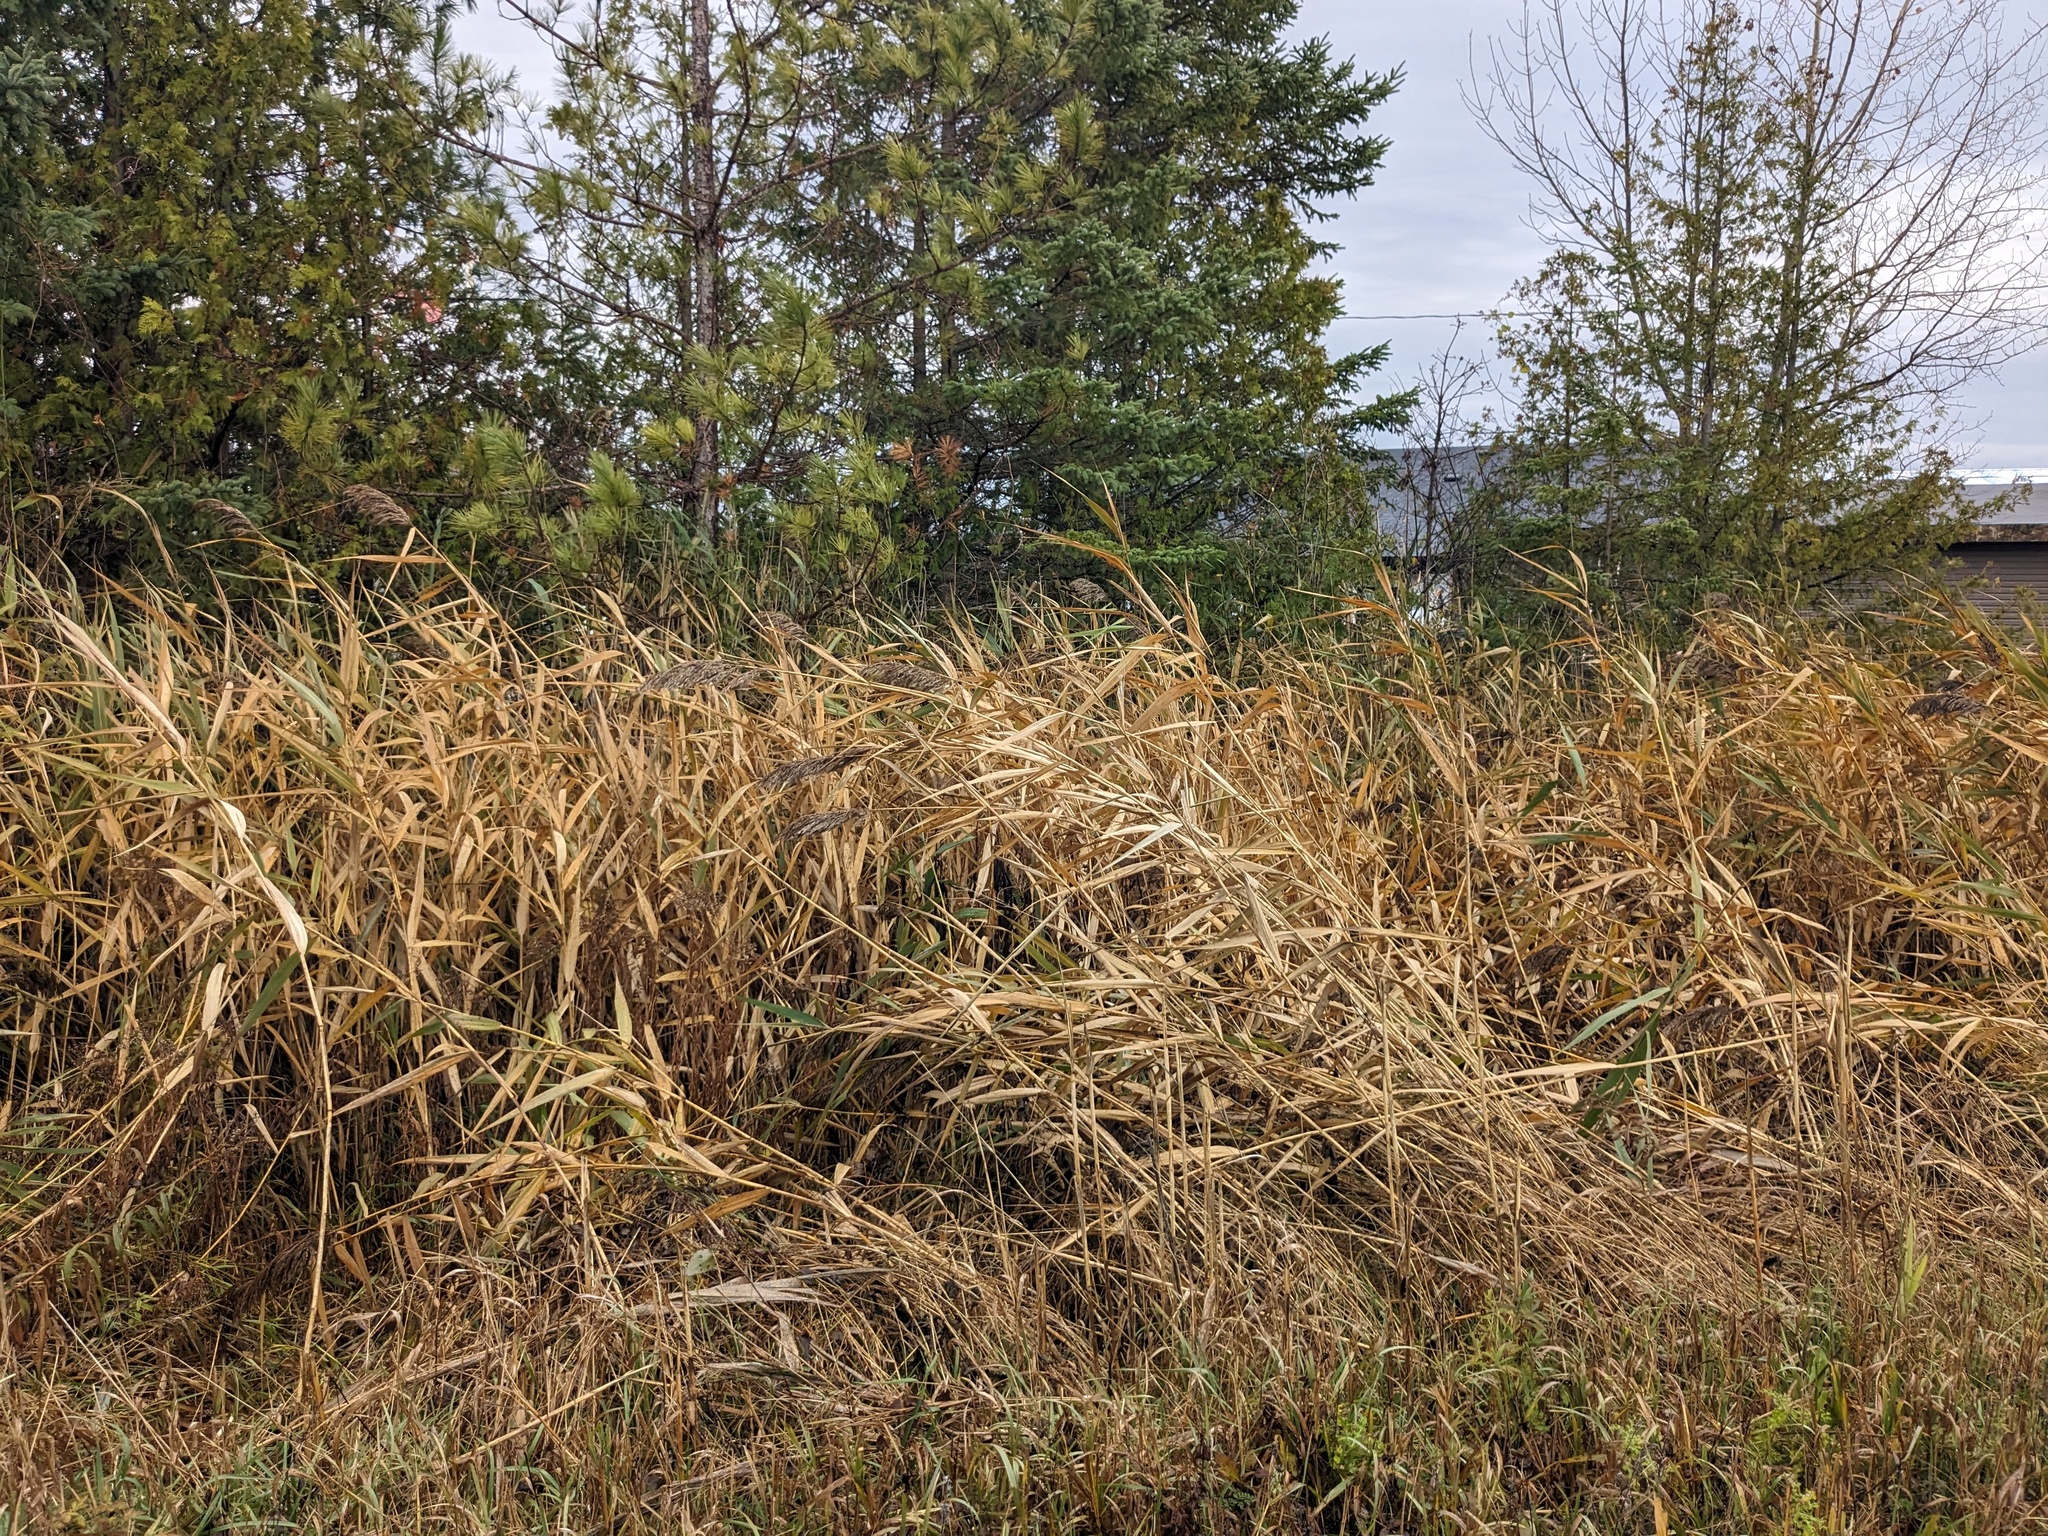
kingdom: Plantae
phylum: Tracheophyta
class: Liliopsida
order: Poales
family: Poaceae
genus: Phragmites
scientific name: Phragmites australis
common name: Common reed
